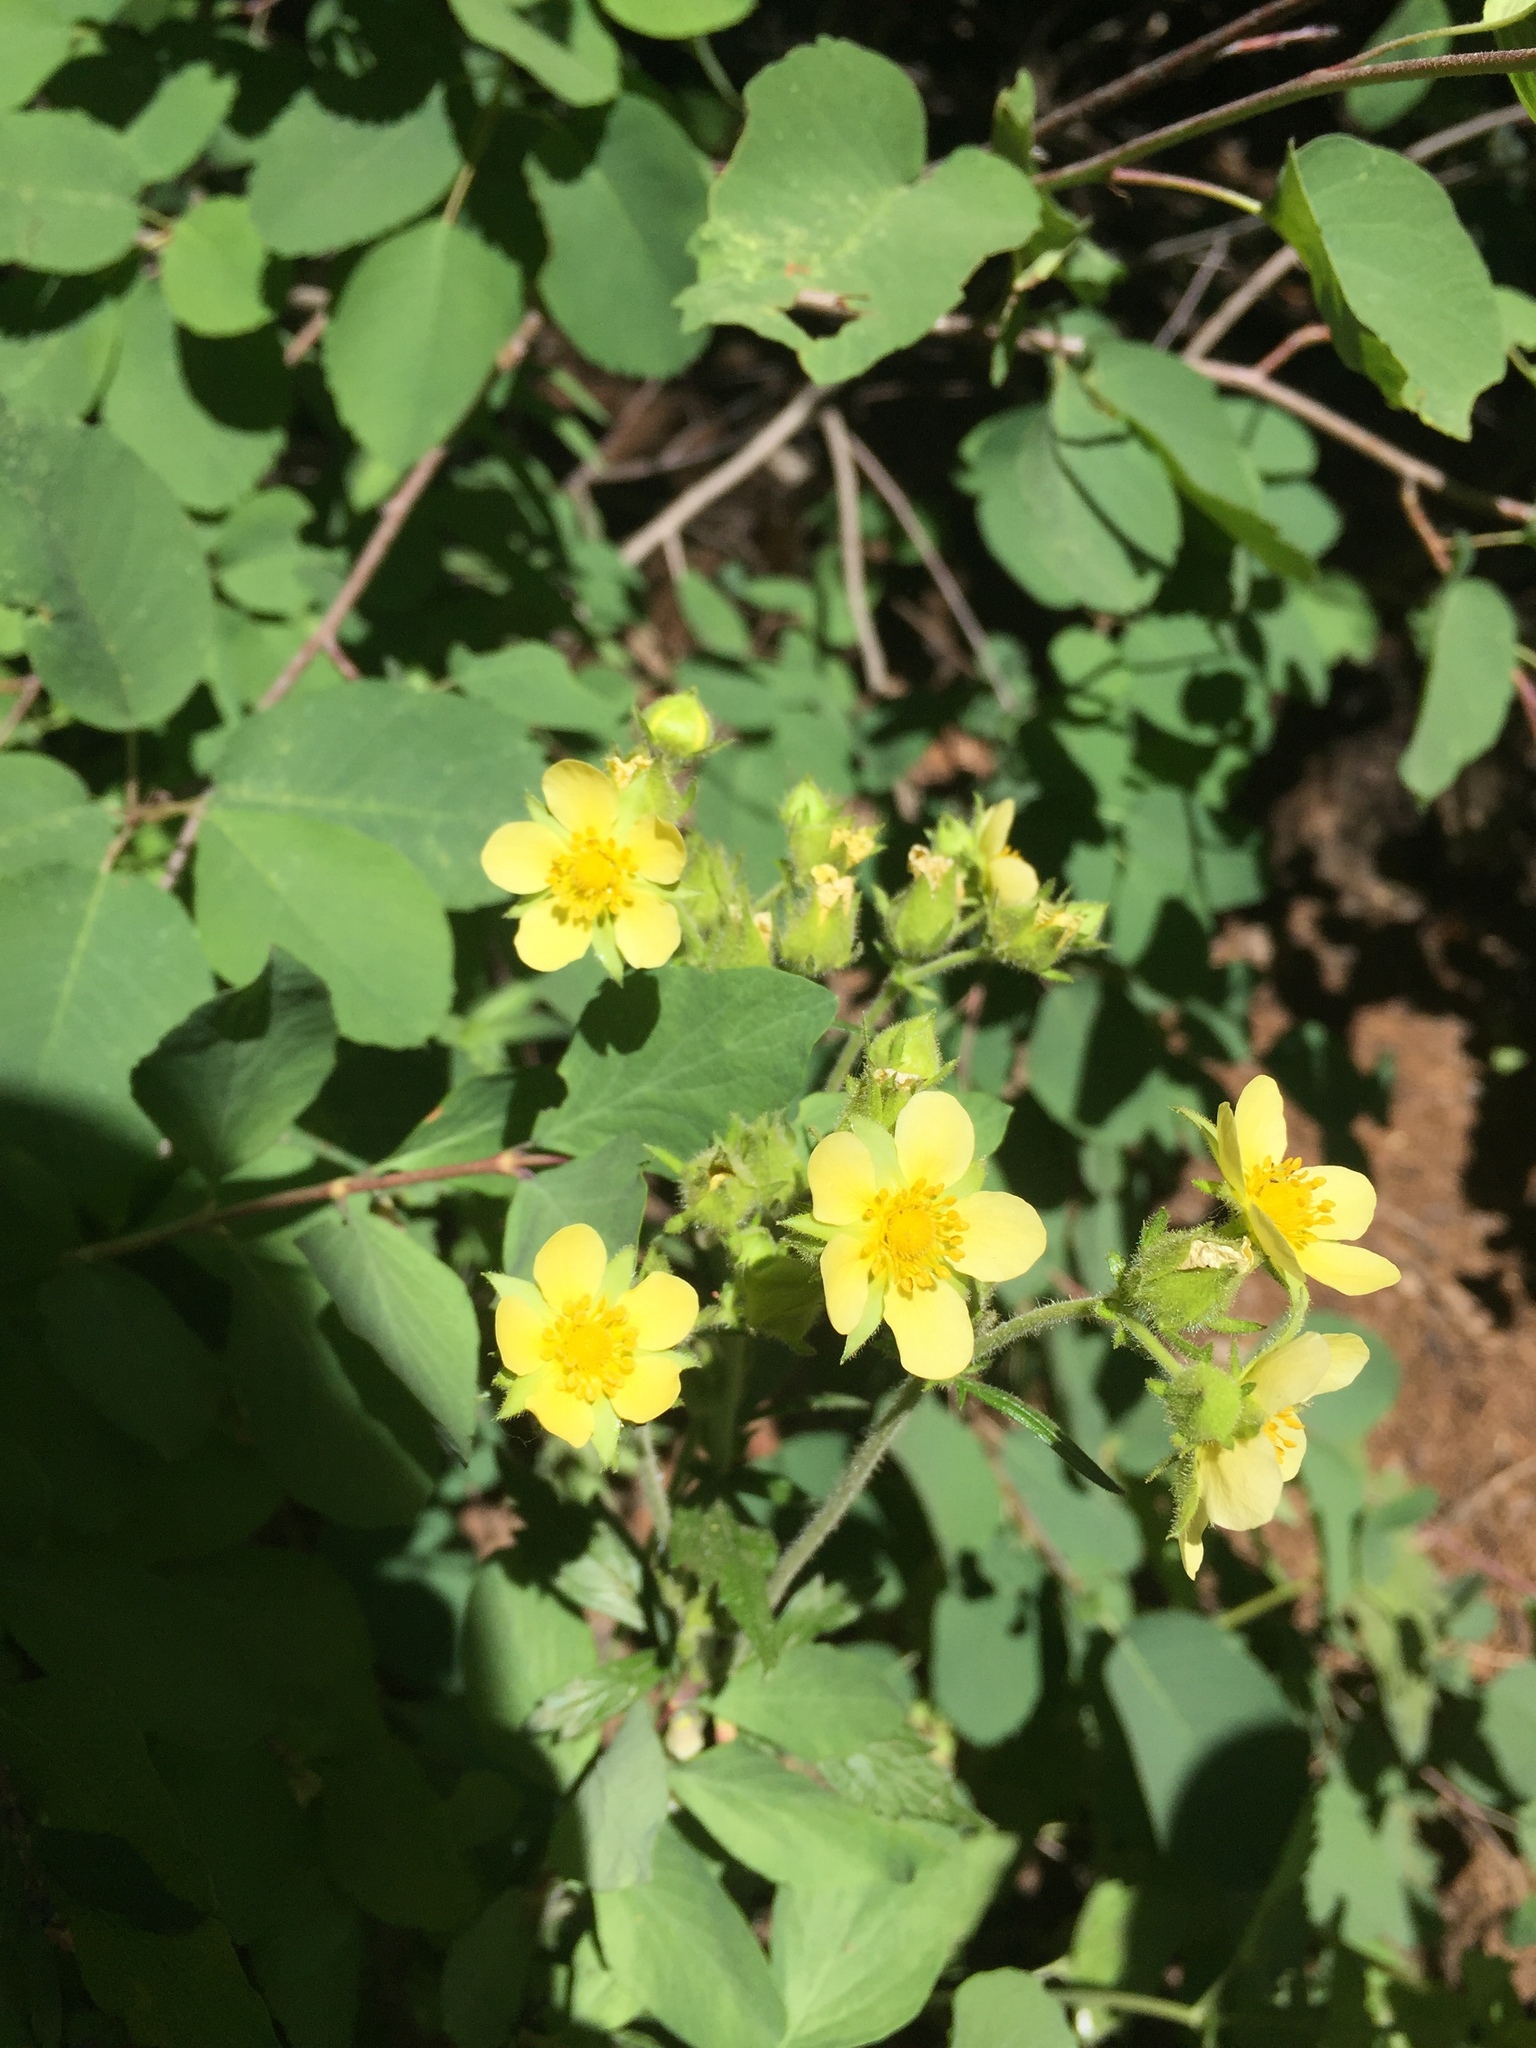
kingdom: Plantae
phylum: Tracheophyta
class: Magnoliopsida
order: Rosales
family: Rosaceae
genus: Drymocallis
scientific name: Drymocallis glandulosa
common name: Sticky cinquefoil
